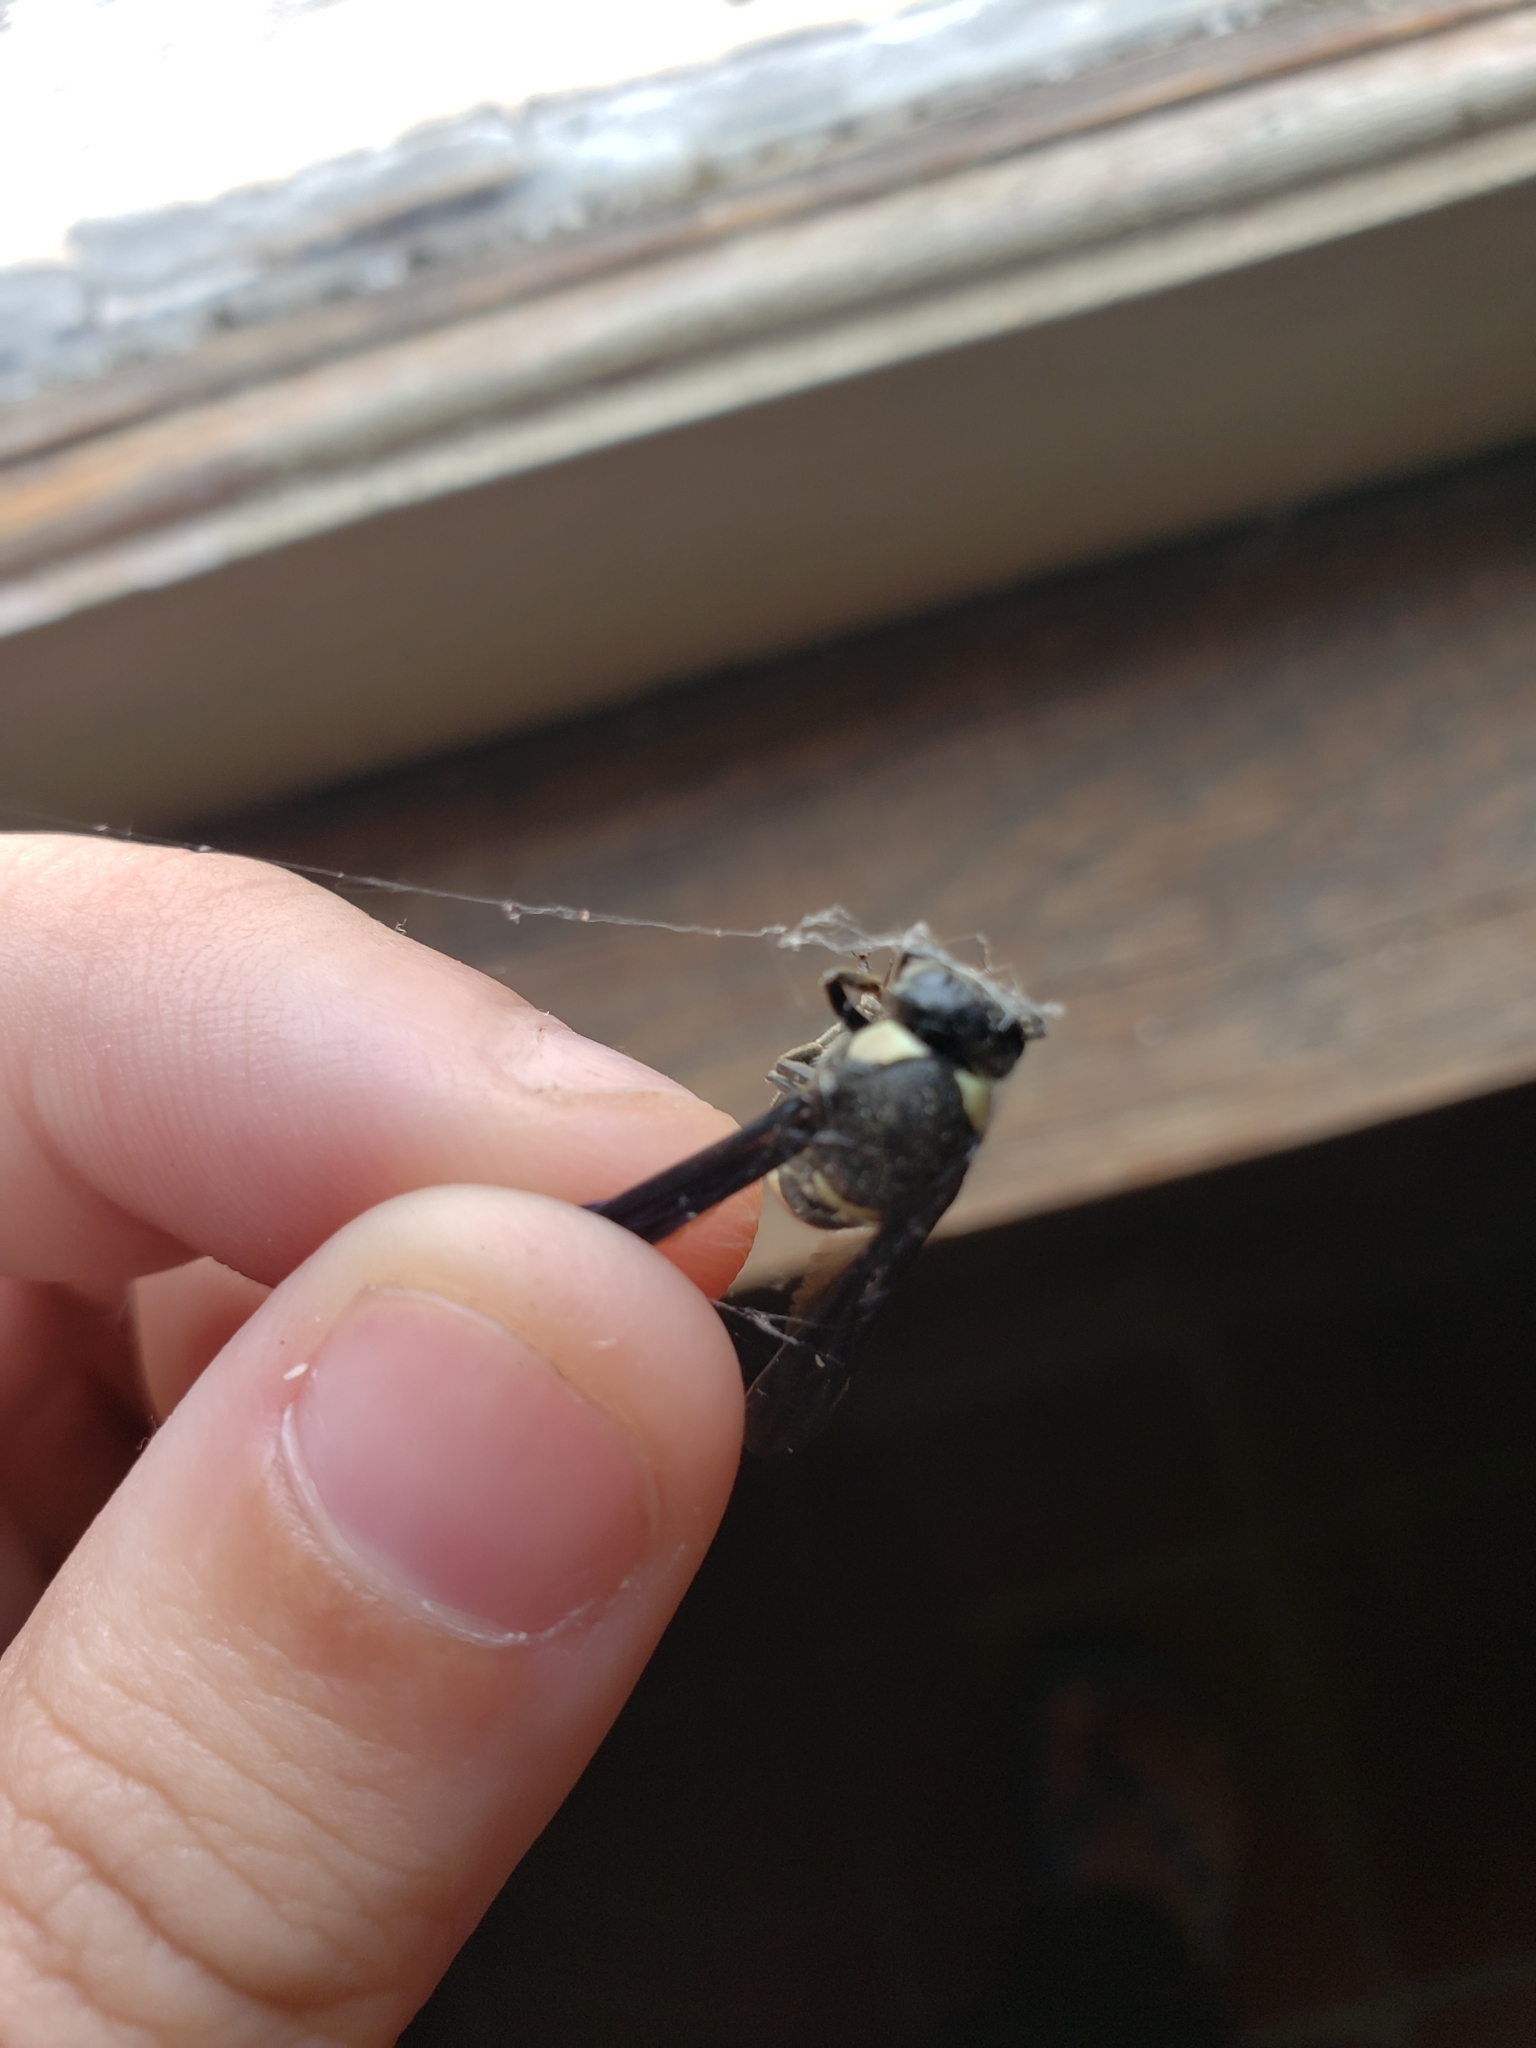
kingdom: Animalia
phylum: Arthropoda
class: Insecta
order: Hymenoptera
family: Eumenidae
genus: Monobia
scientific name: Monobia quadridens
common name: Four-toothed mason wasp
